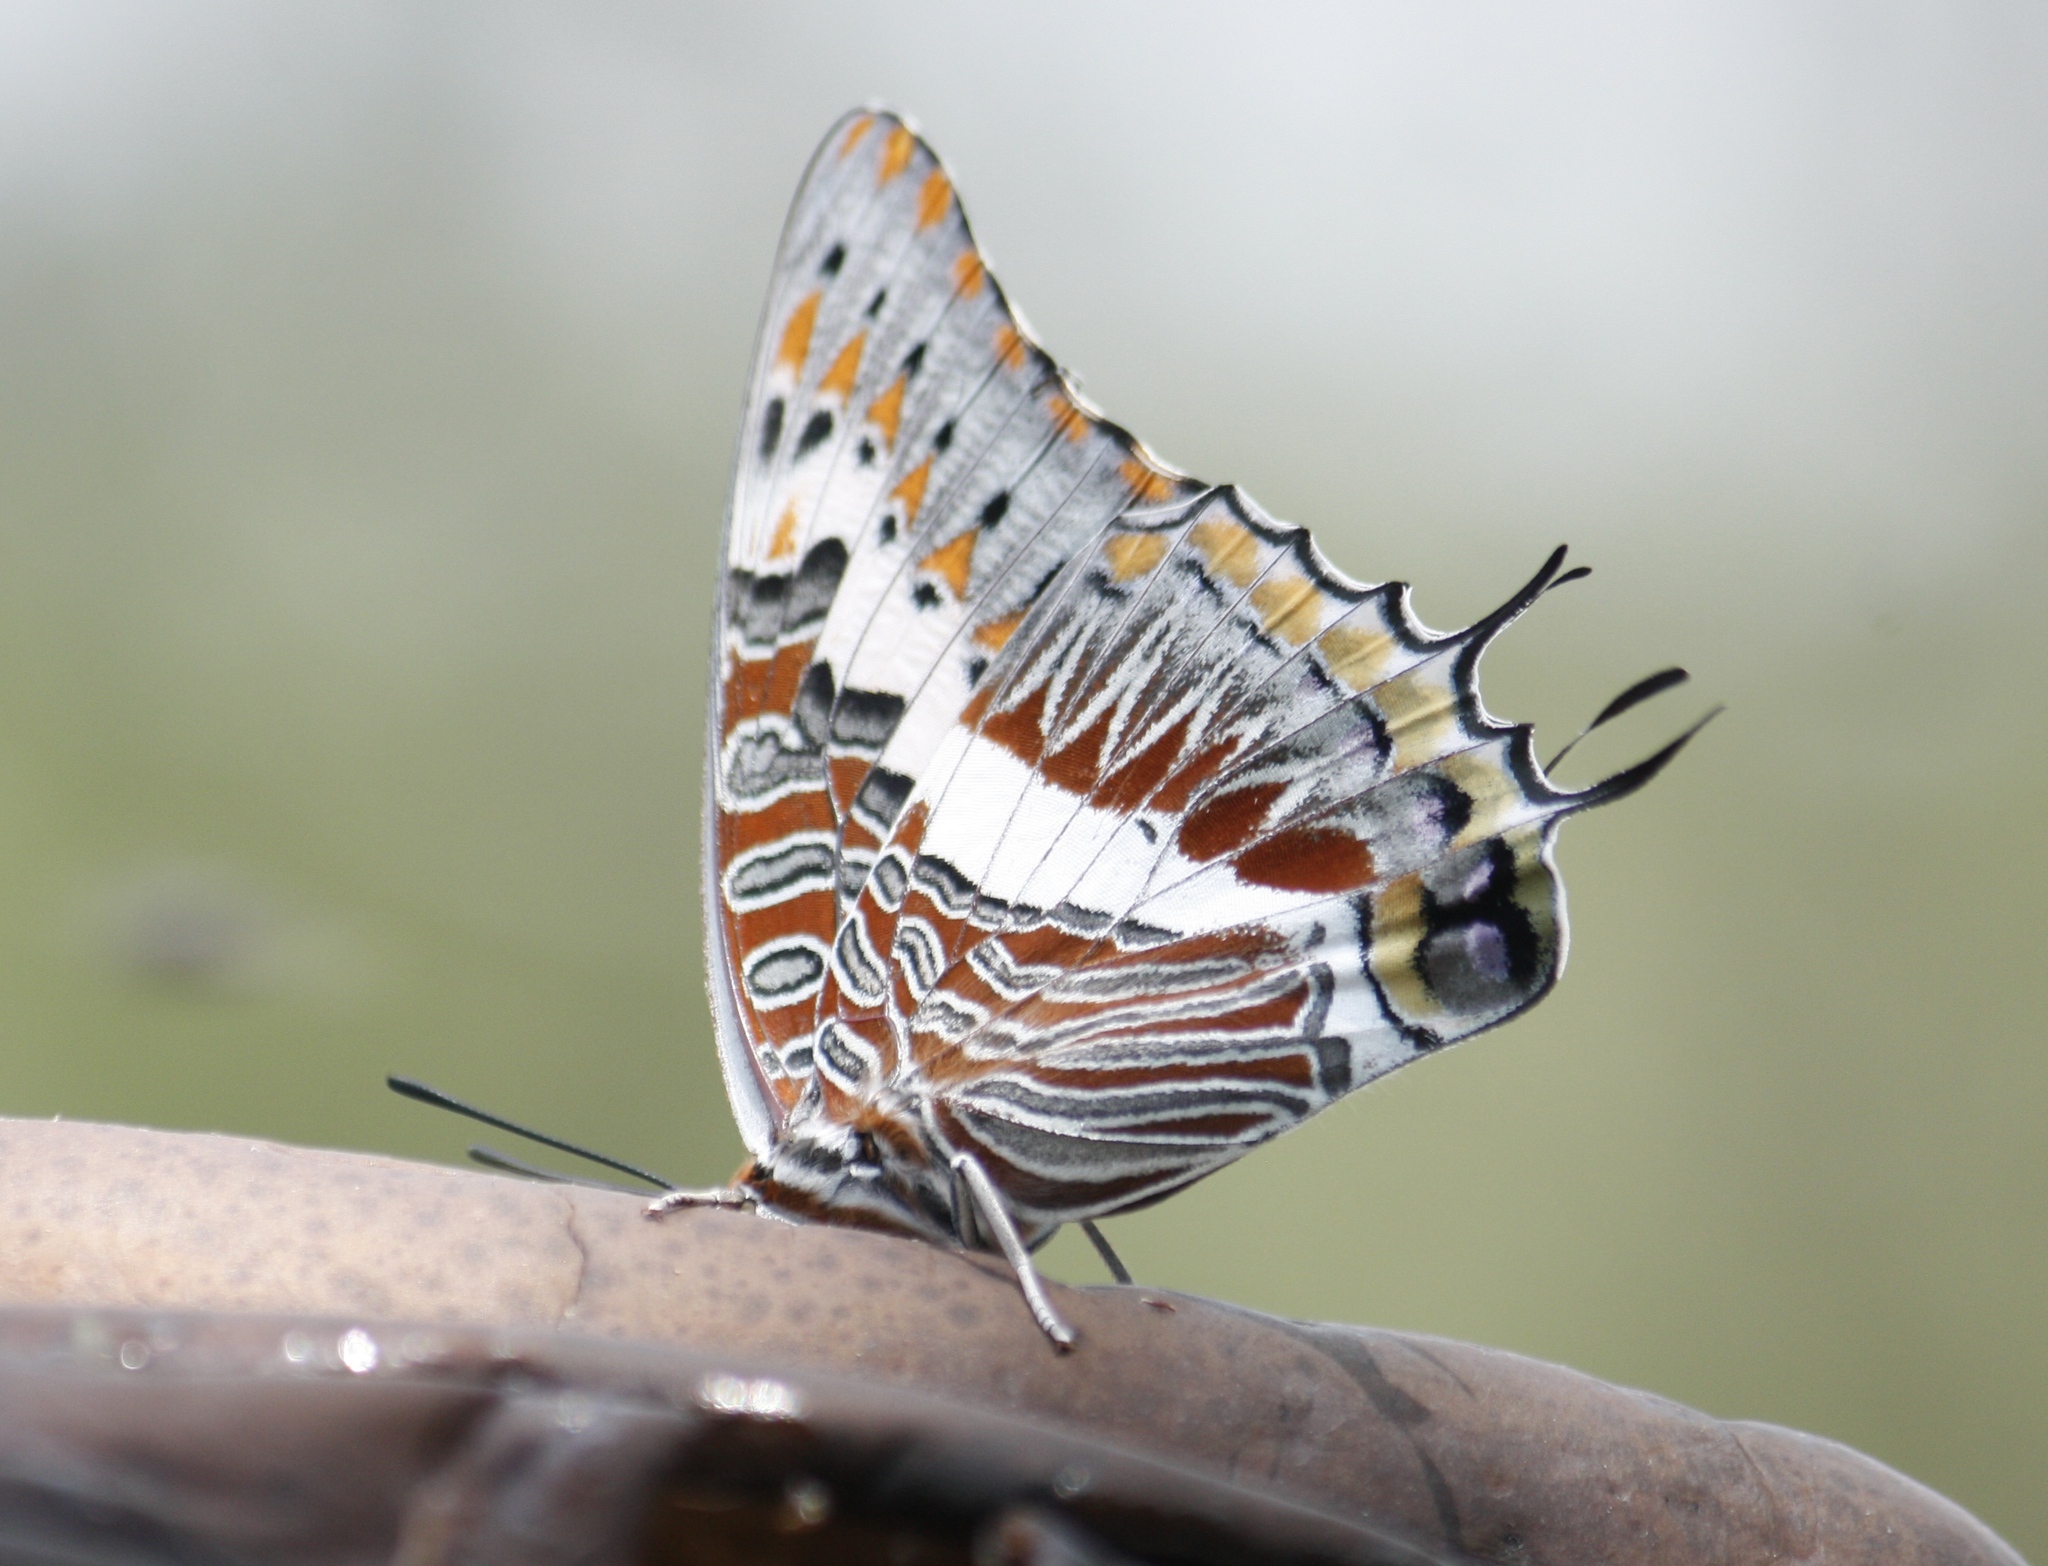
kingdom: Animalia
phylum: Arthropoda
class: Insecta
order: Lepidoptera
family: Nymphalidae
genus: Charaxes
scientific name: Charaxes jasius
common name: Two tailed pasha
